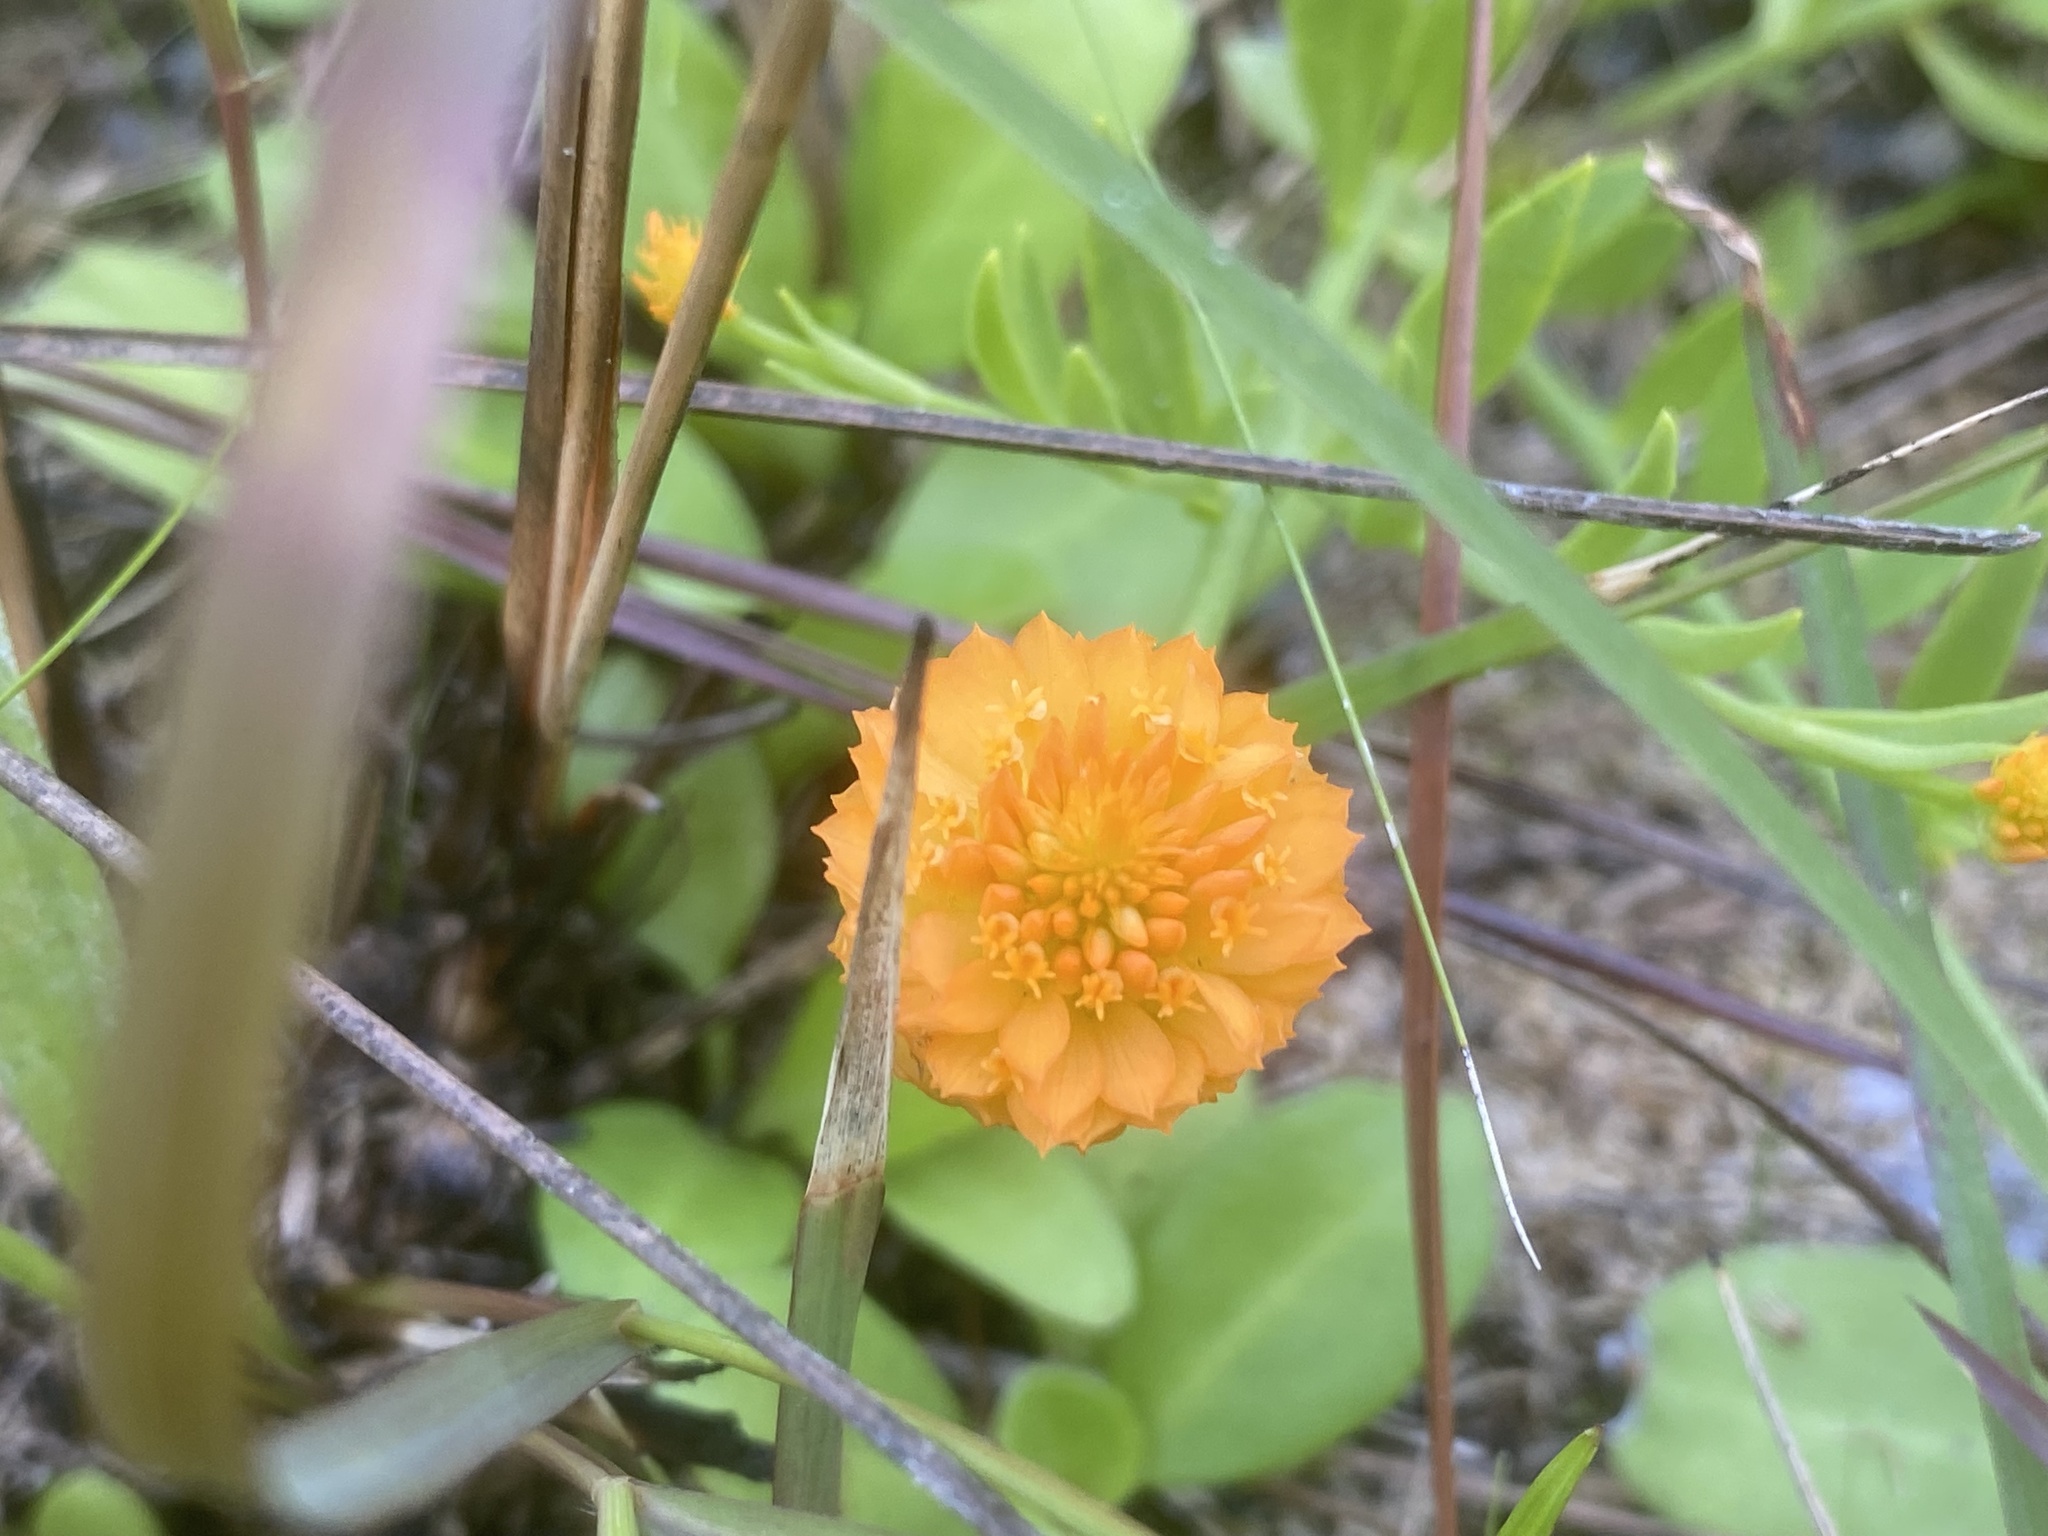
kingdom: Plantae
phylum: Tracheophyta
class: Magnoliopsida
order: Fabales
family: Polygalaceae
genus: Polygala
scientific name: Polygala lutea
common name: Orange milkwort
